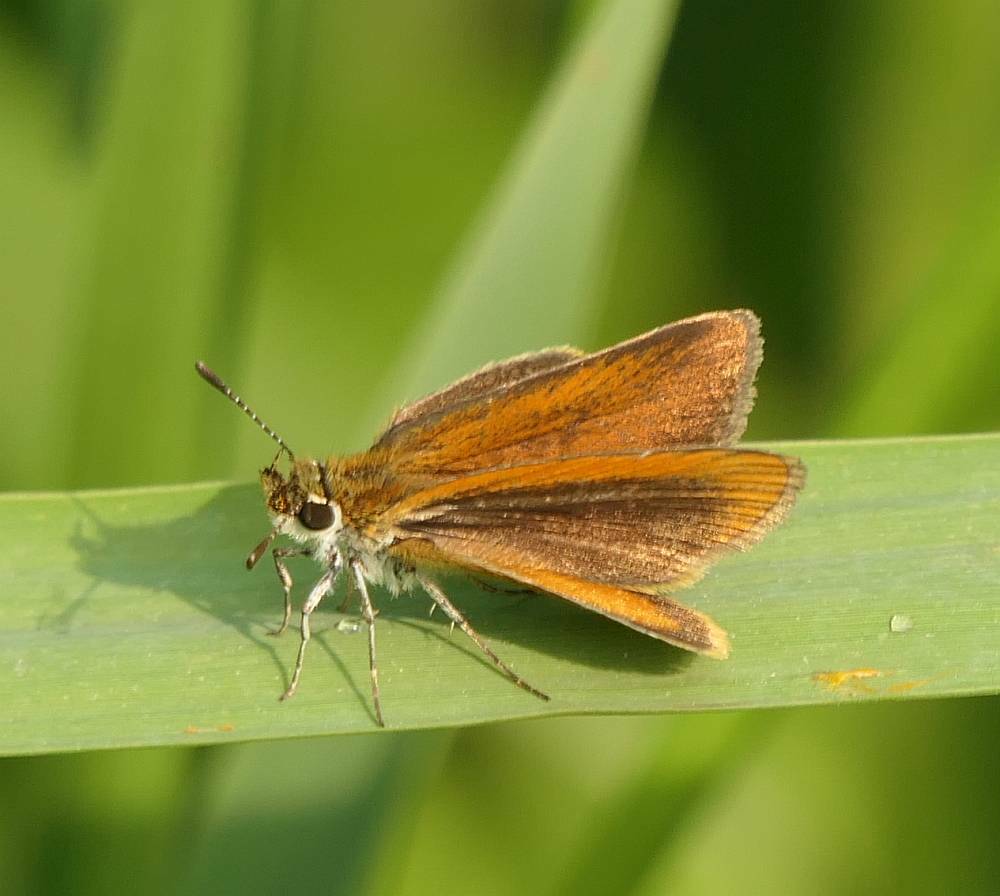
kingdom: Animalia
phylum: Arthropoda
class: Insecta
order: Lepidoptera
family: Hesperiidae
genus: Ancyloxypha
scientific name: Ancyloxypha numitor
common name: Least skipper
